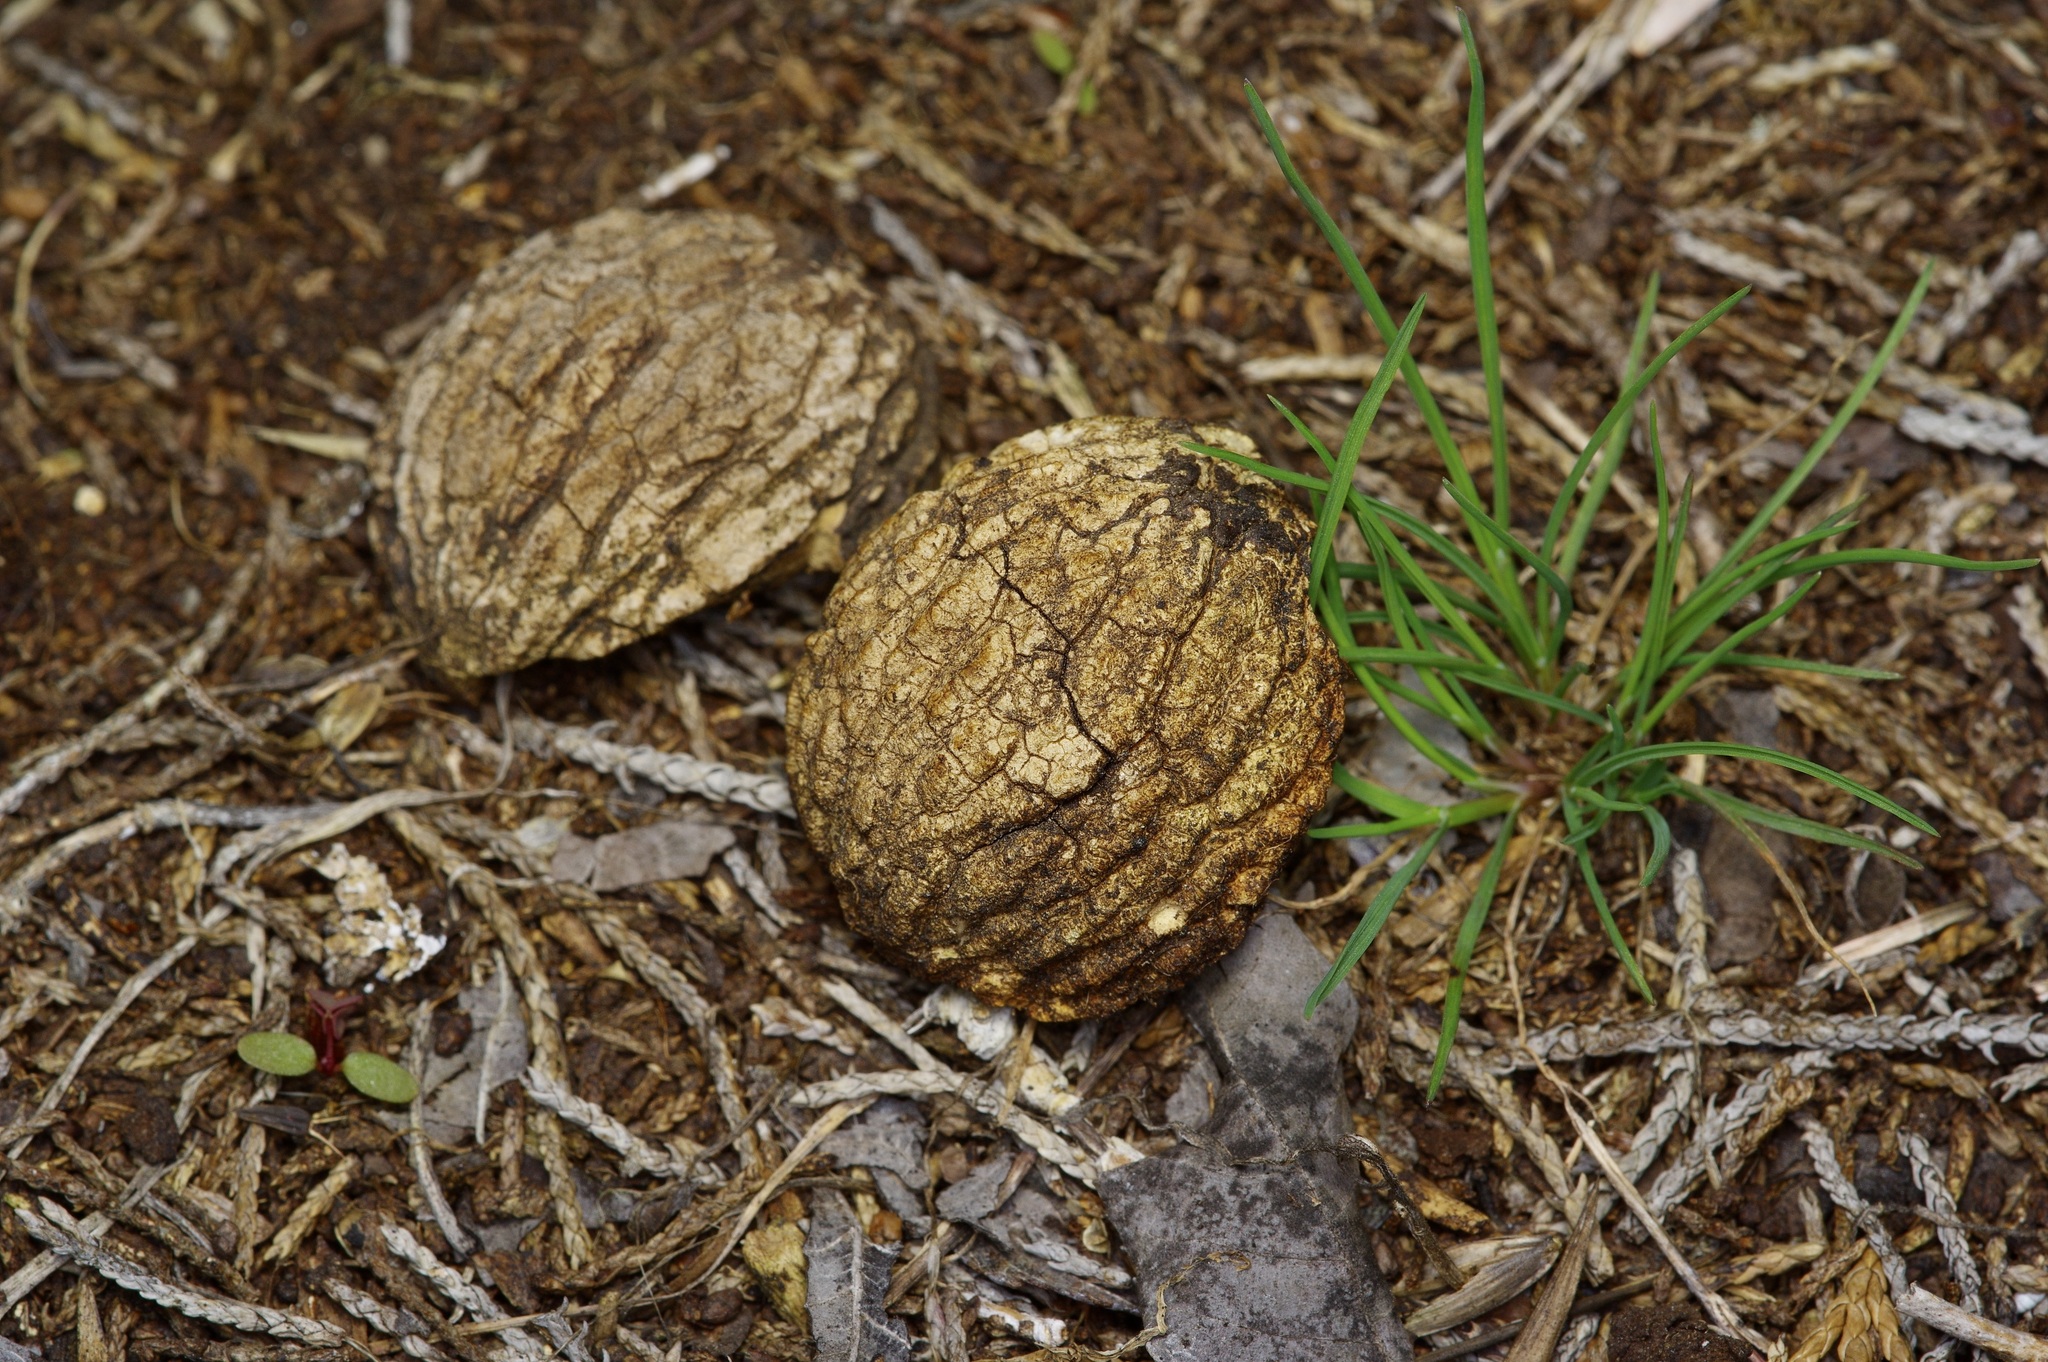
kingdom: Plantae
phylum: Tracheophyta
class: Magnoliopsida
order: Fagales
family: Juglandaceae
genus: Juglans
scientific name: Juglans microcarpa
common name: Texas walnut
